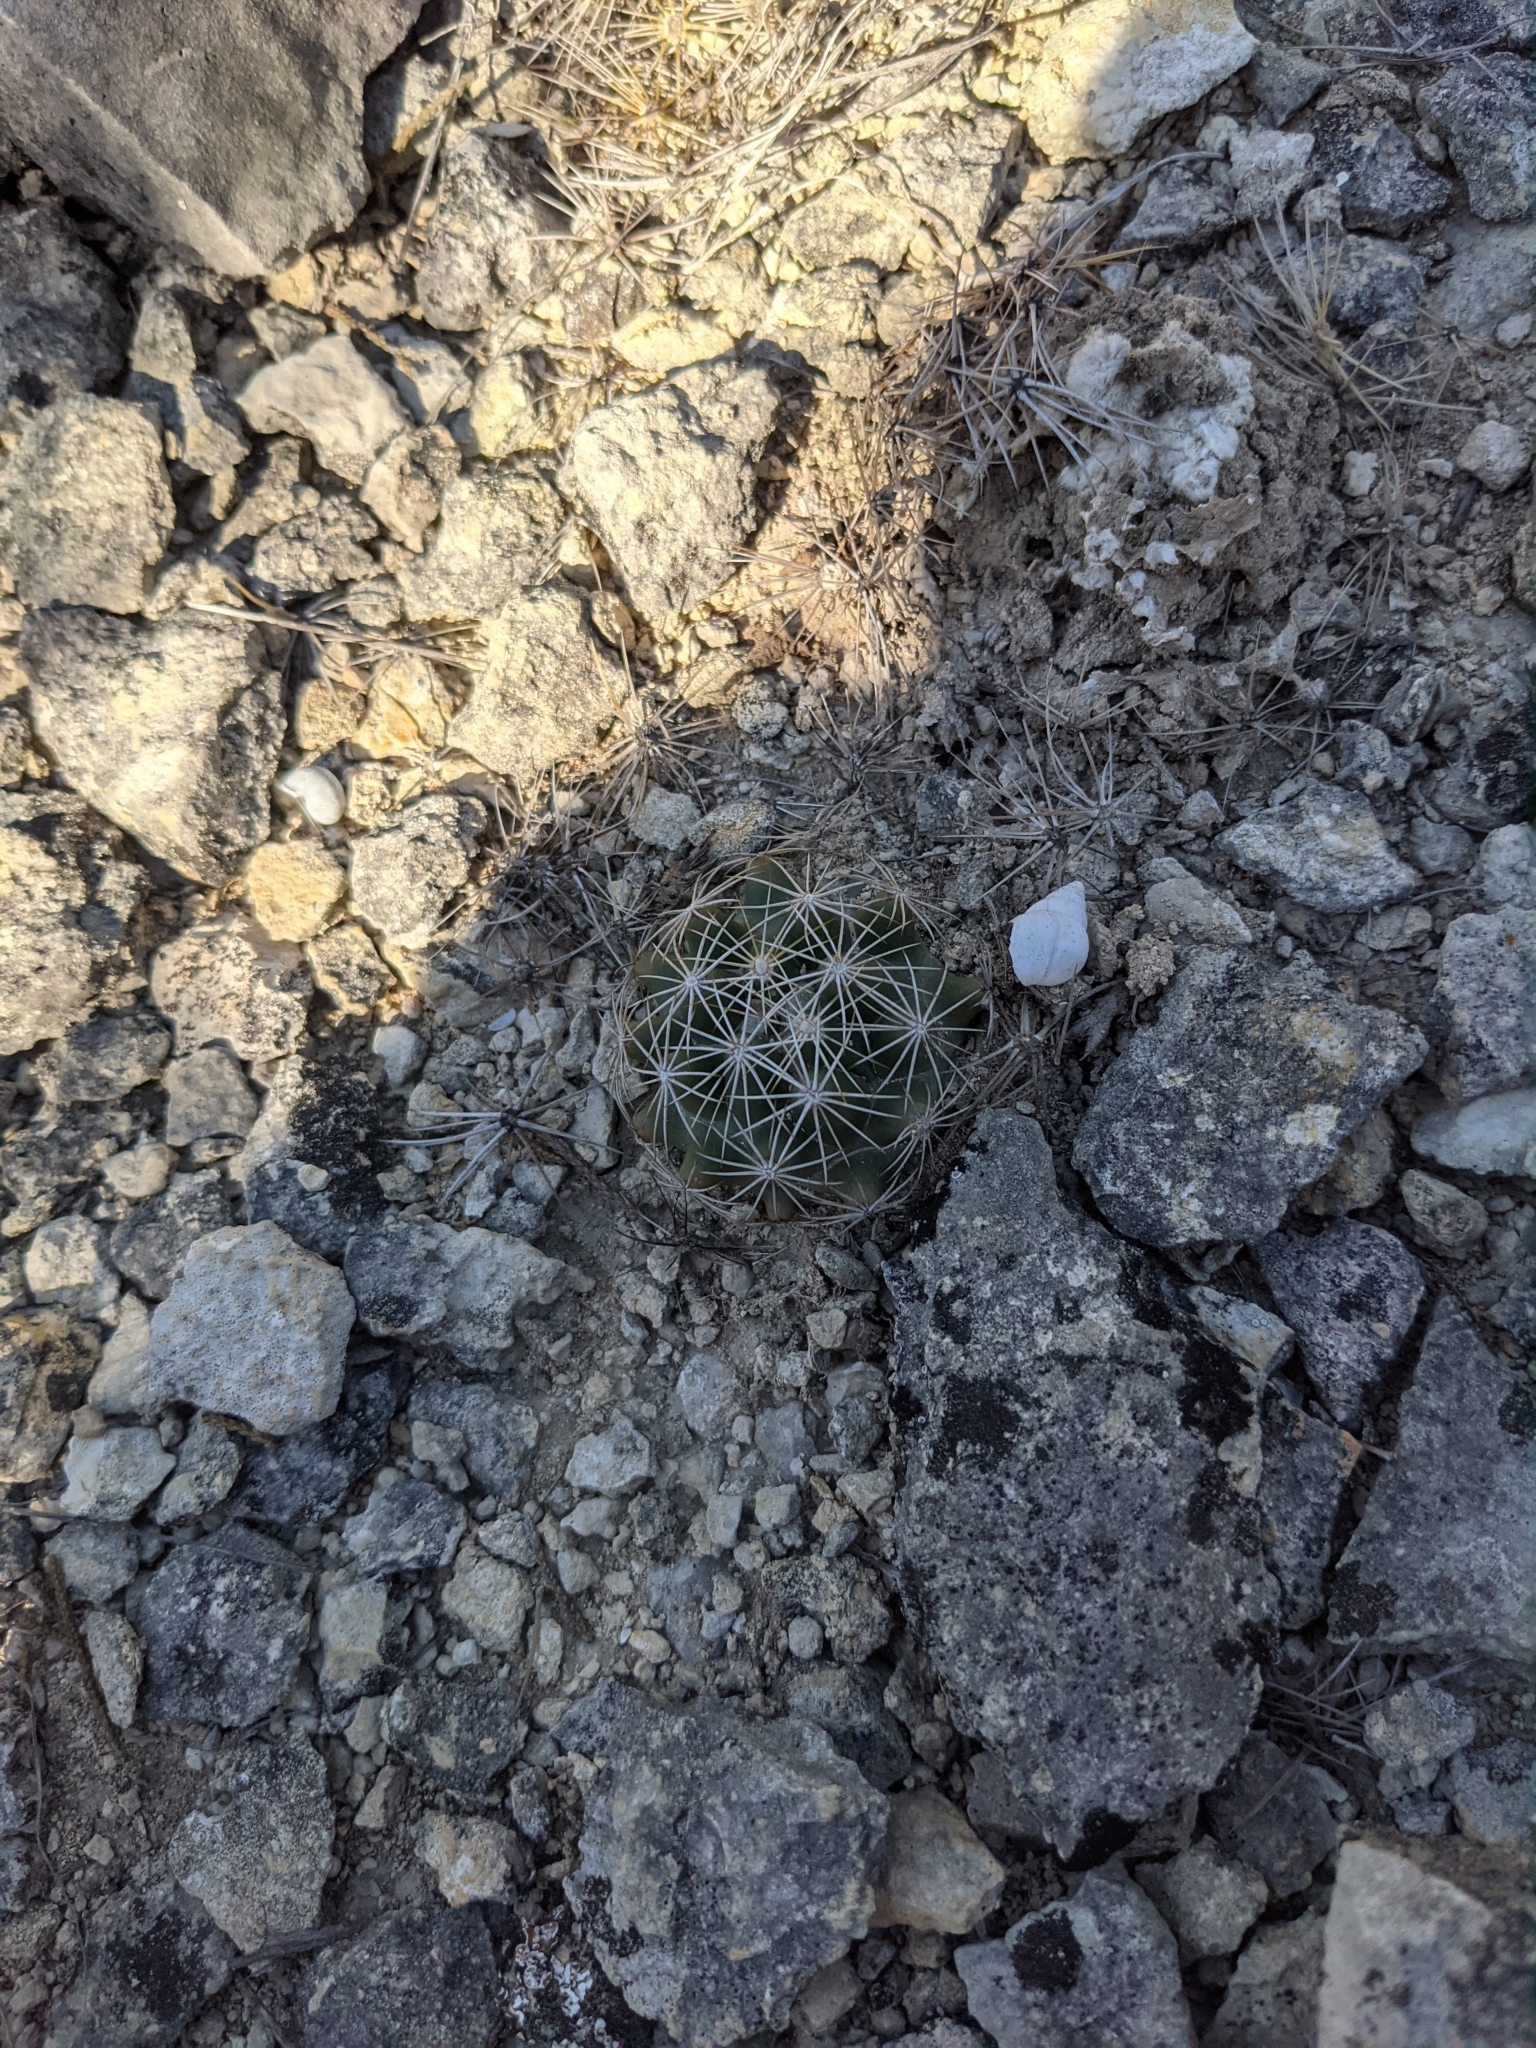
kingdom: Plantae
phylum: Tracheophyta
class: Magnoliopsida
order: Caryophyllales
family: Cactaceae
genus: Coryphantha
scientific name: Coryphantha sulcata
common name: Finger cactus
